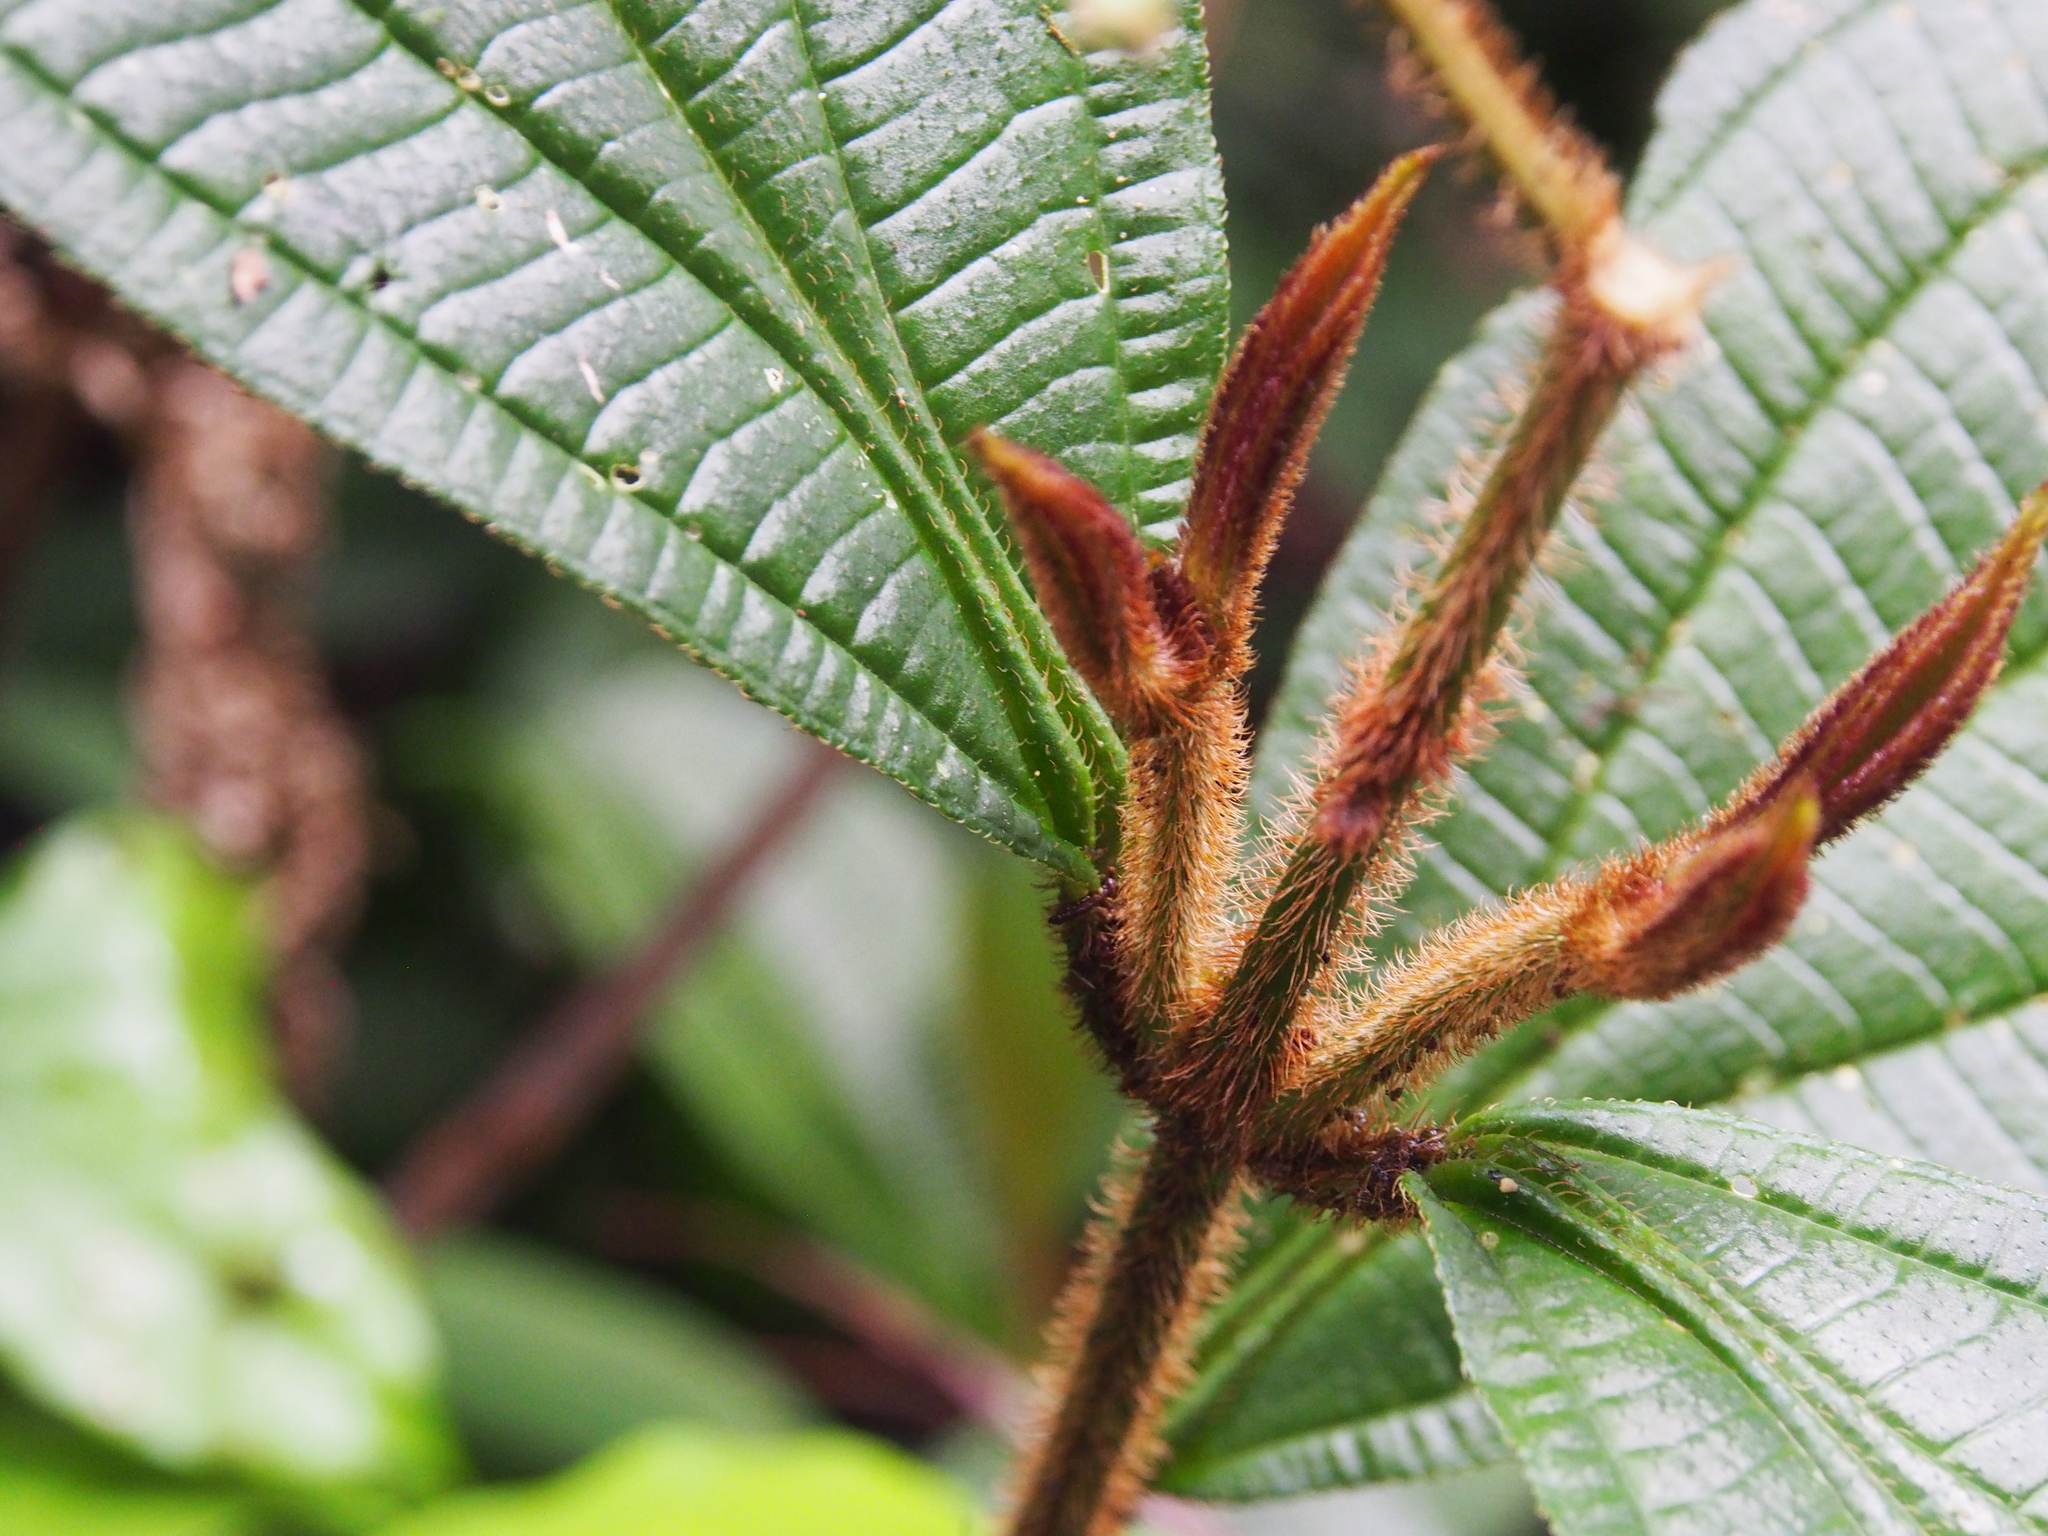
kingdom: Plantae
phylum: Tracheophyta
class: Magnoliopsida
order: Myrtales
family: Melastomataceae
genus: Miconia
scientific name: Miconia conosetosa
